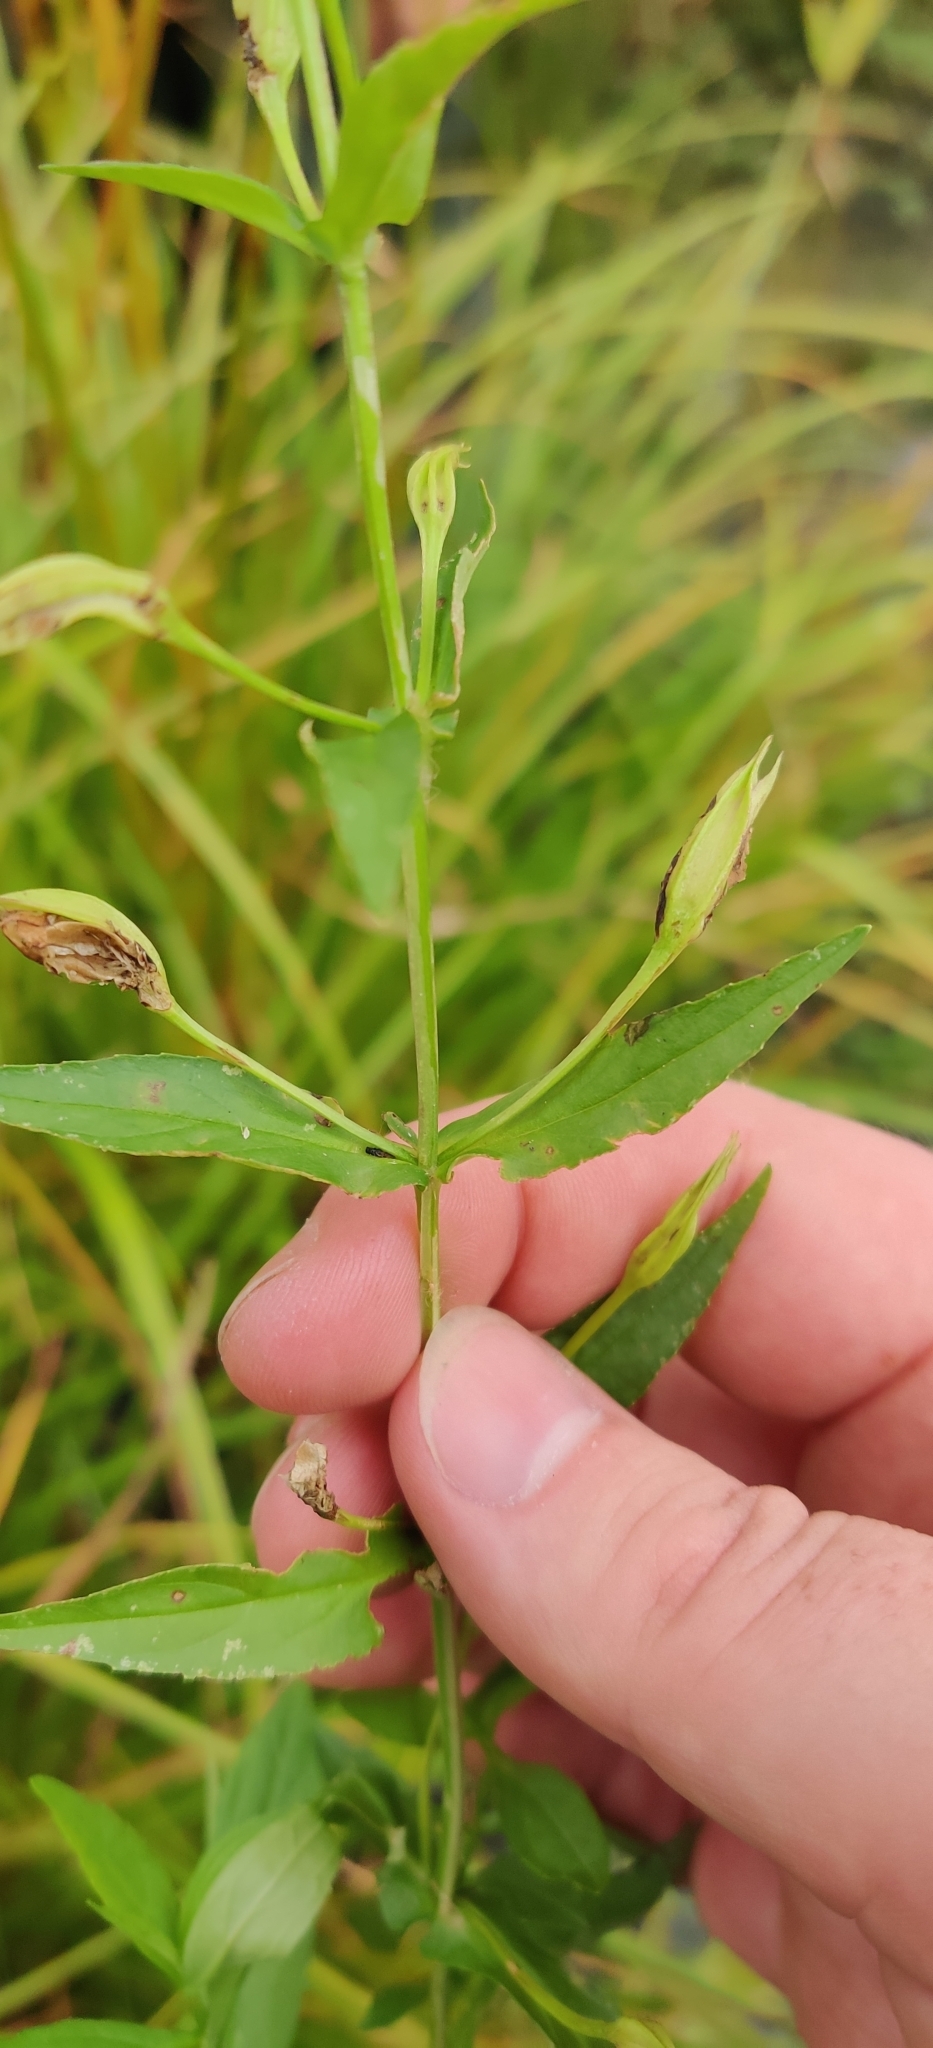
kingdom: Plantae
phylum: Tracheophyta
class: Magnoliopsida
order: Lamiales
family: Phrymaceae
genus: Mimulus
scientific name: Mimulus ringens
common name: Allegheny monkeyflower
